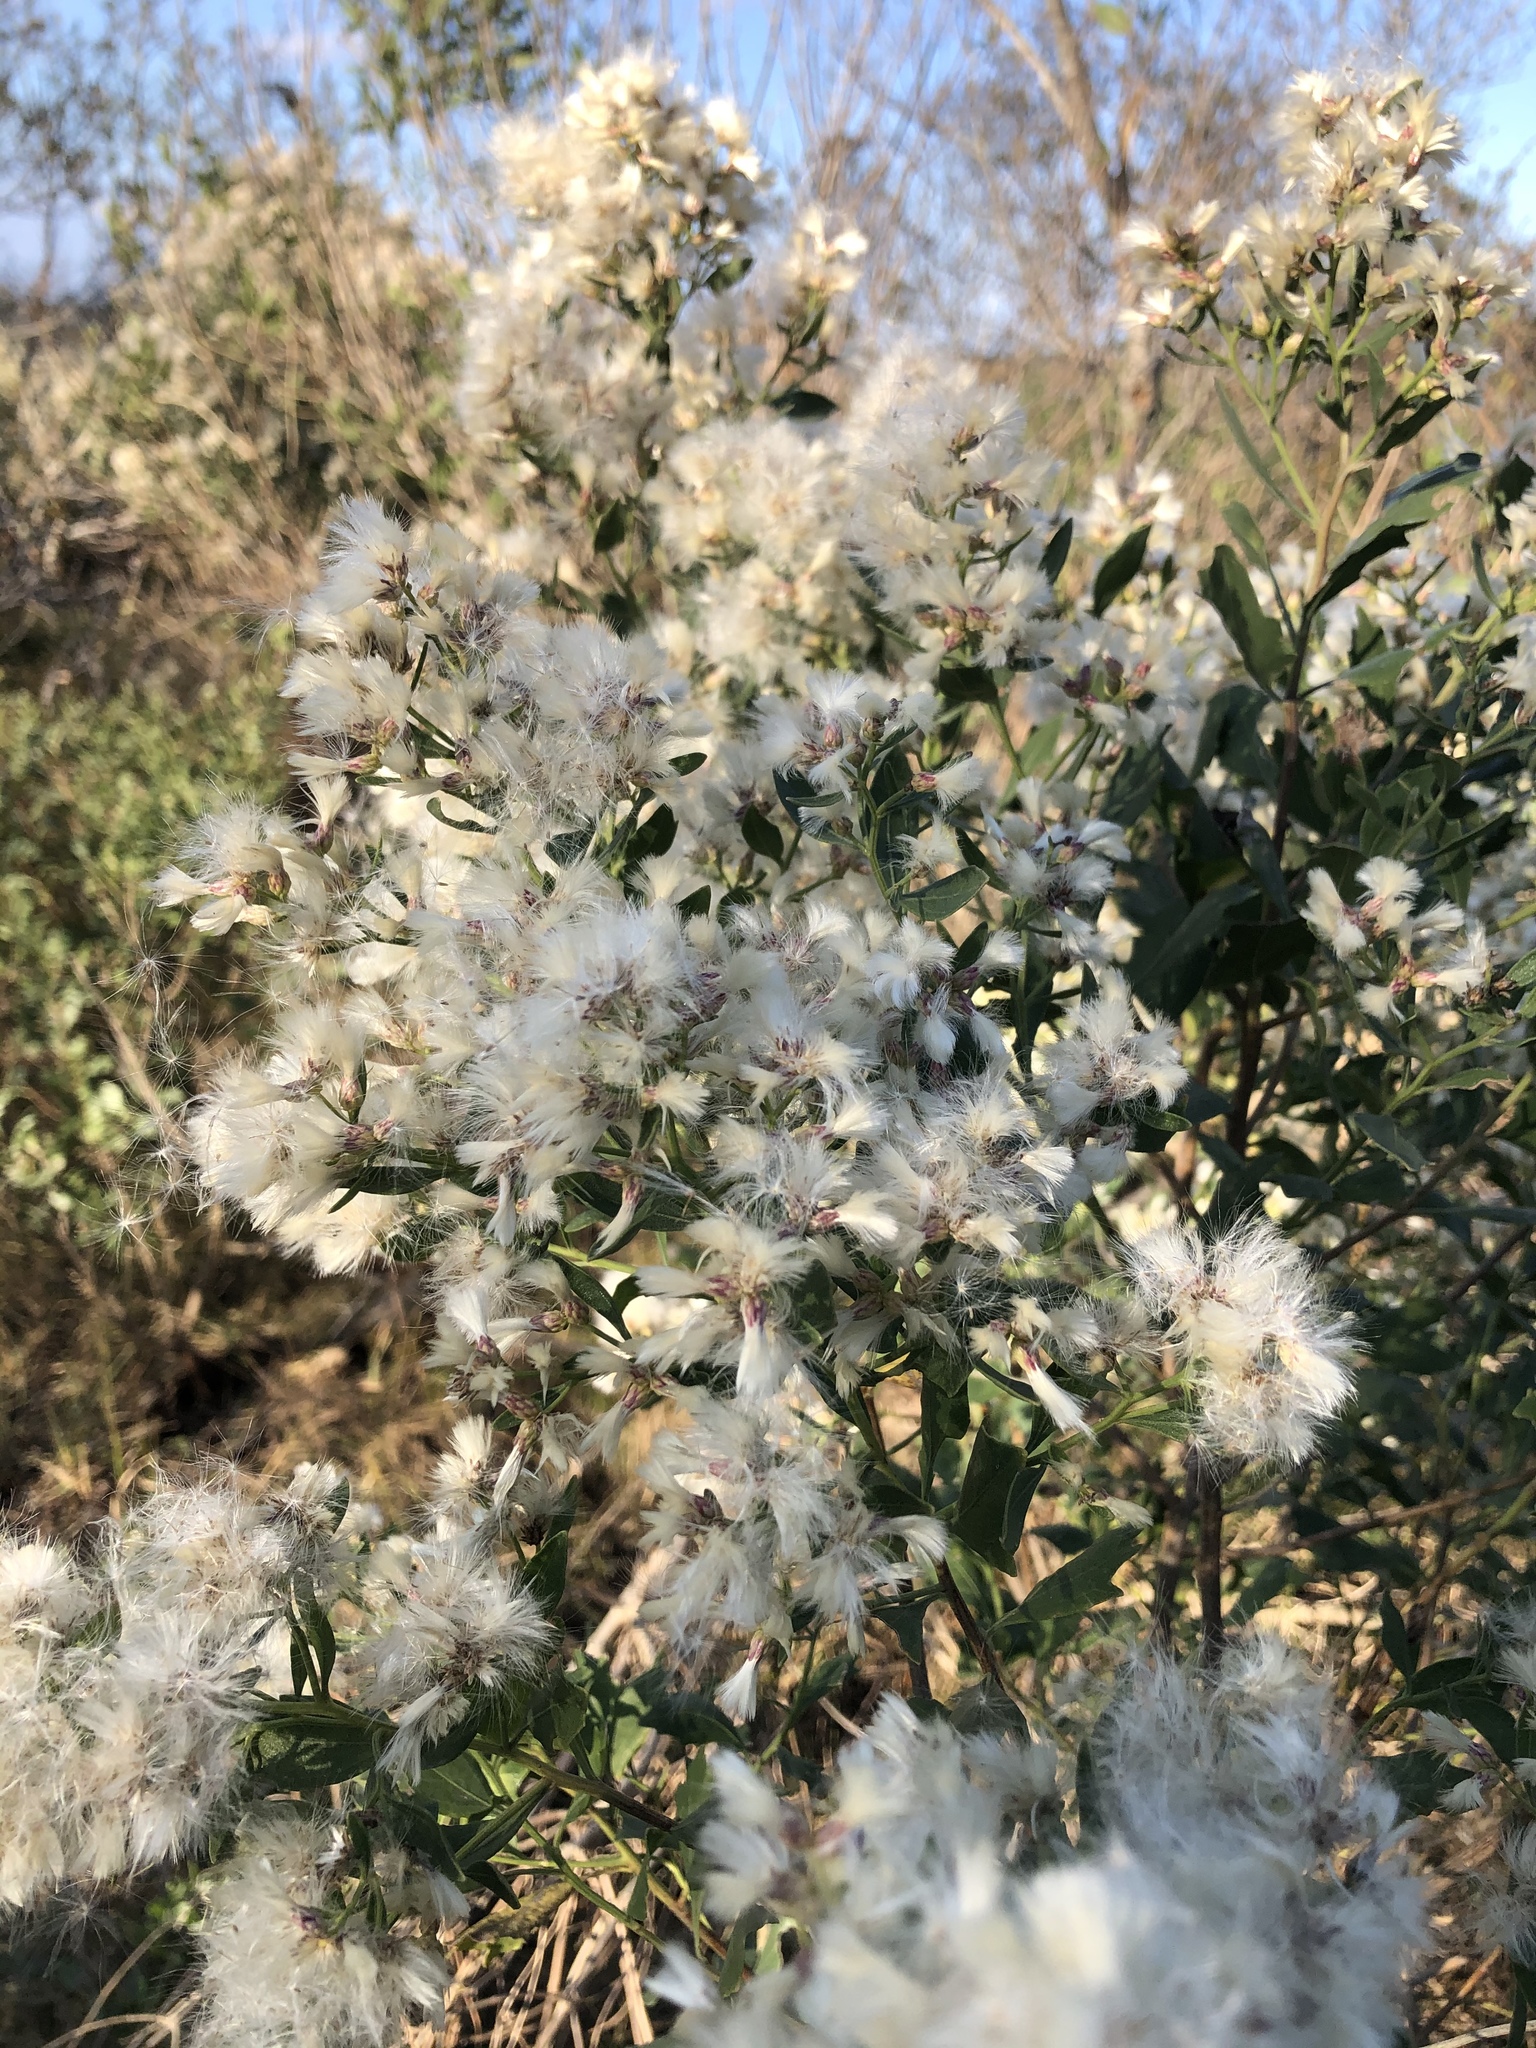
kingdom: Plantae
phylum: Tracheophyta
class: Magnoliopsida
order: Asterales
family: Asteraceae
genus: Baccharis
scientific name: Baccharis halimifolia
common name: Eastern baccharis
